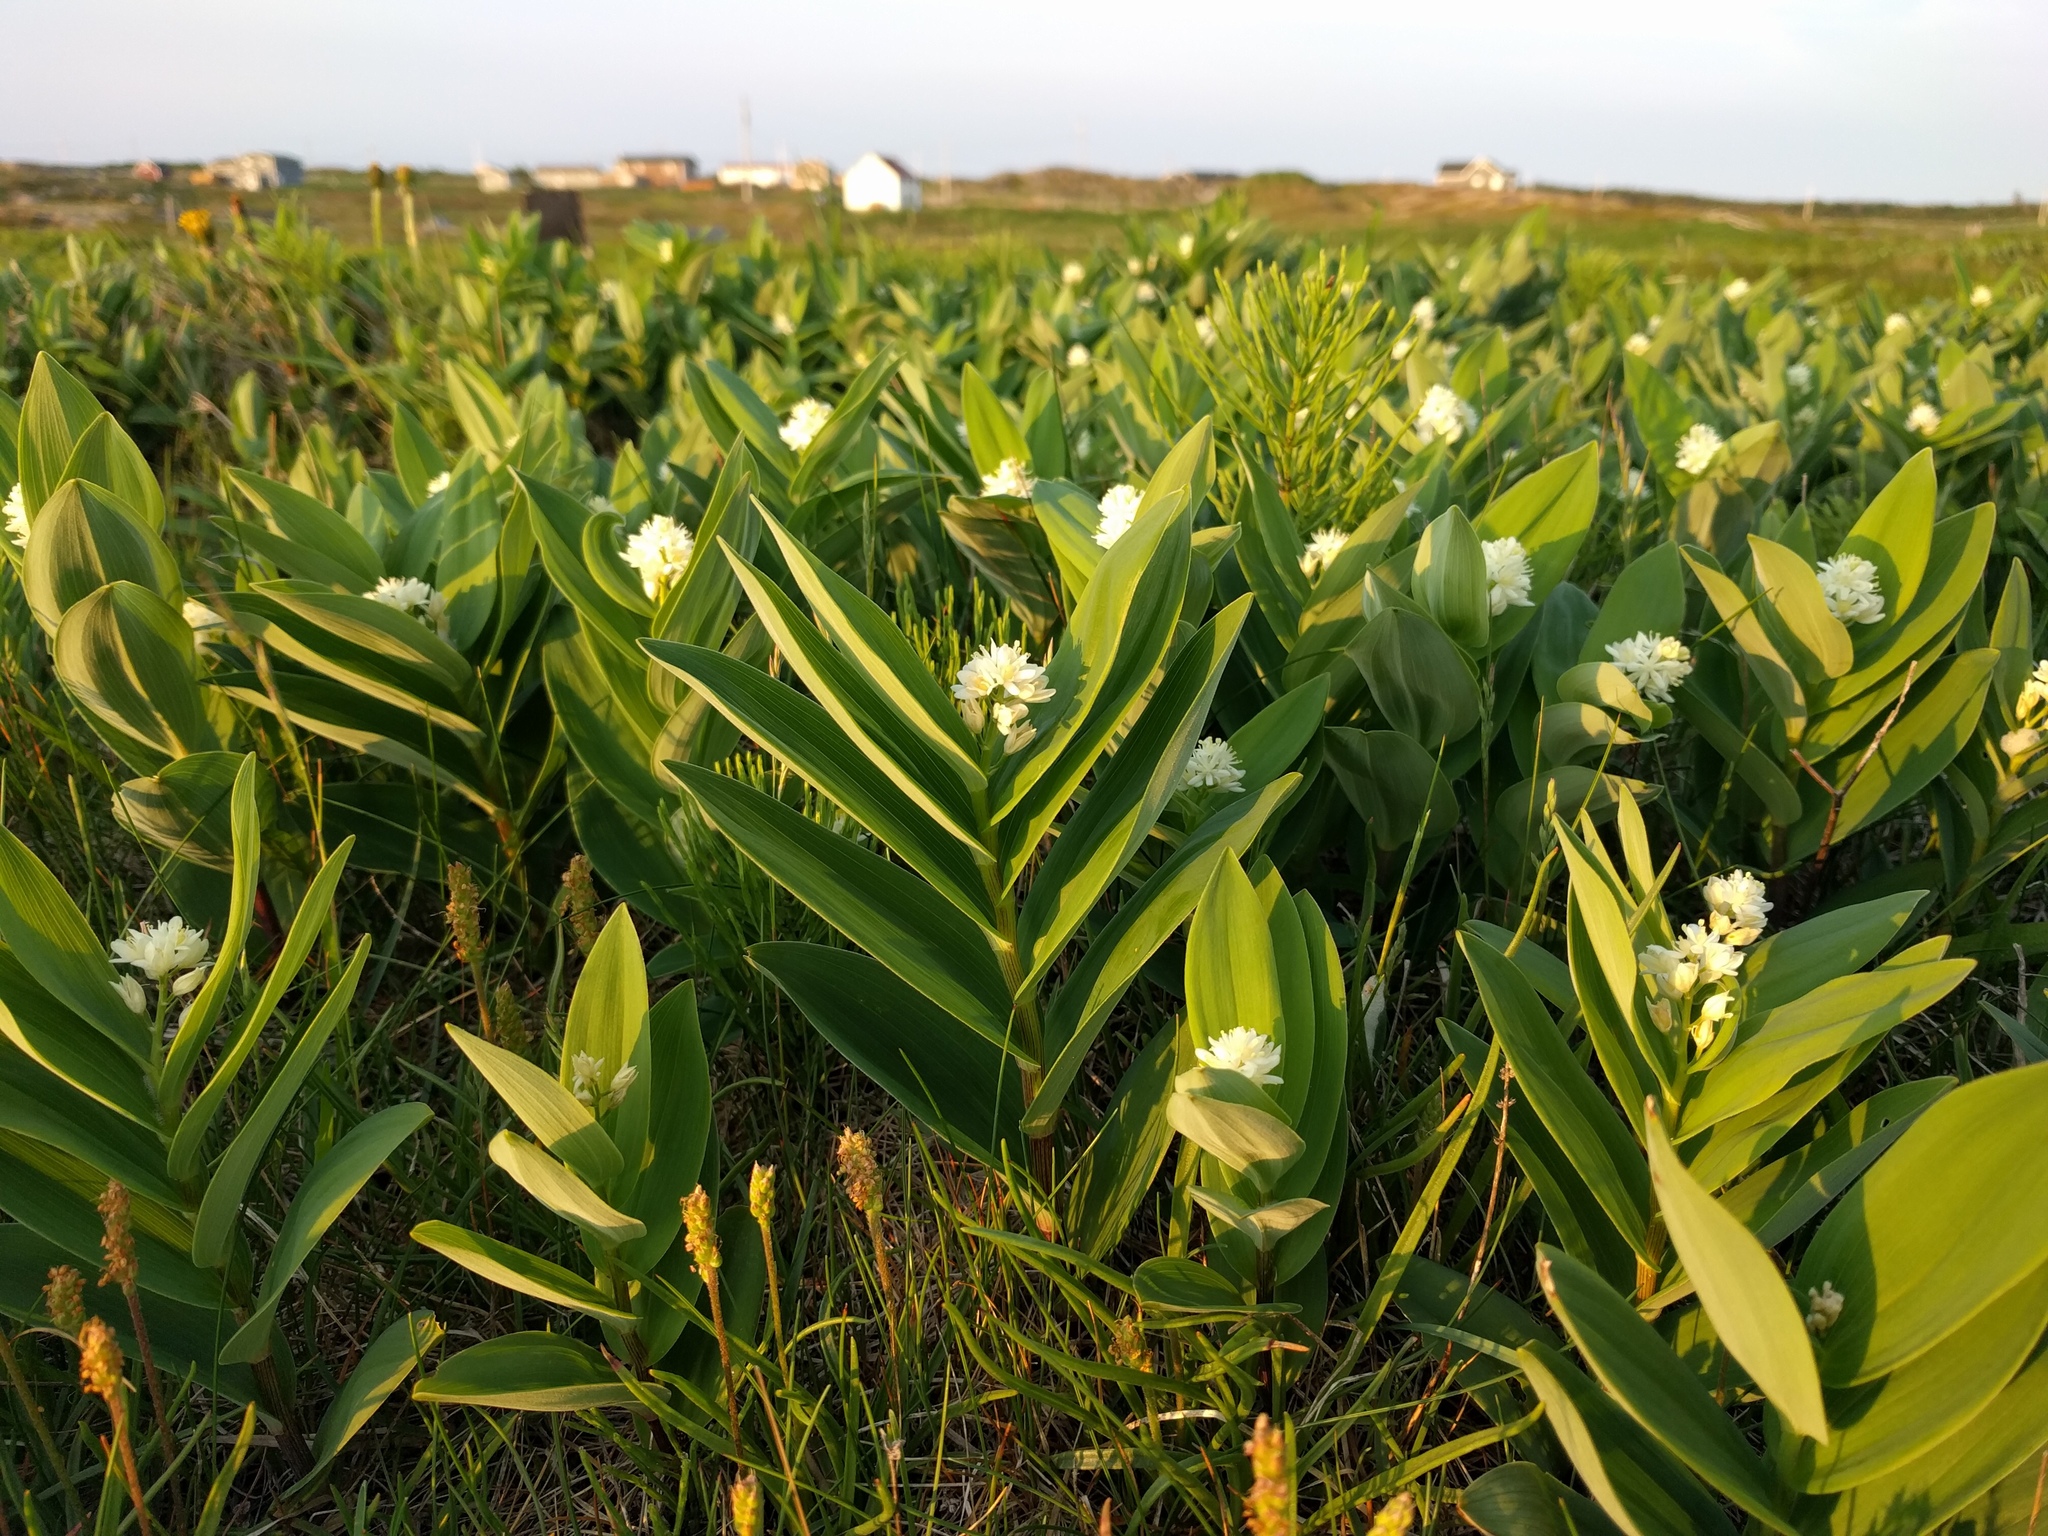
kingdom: Plantae
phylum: Tracheophyta
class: Liliopsida
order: Asparagales
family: Asparagaceae
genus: Maianthemum
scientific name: Maianthemum stellatum
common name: Little false solomon's seal
